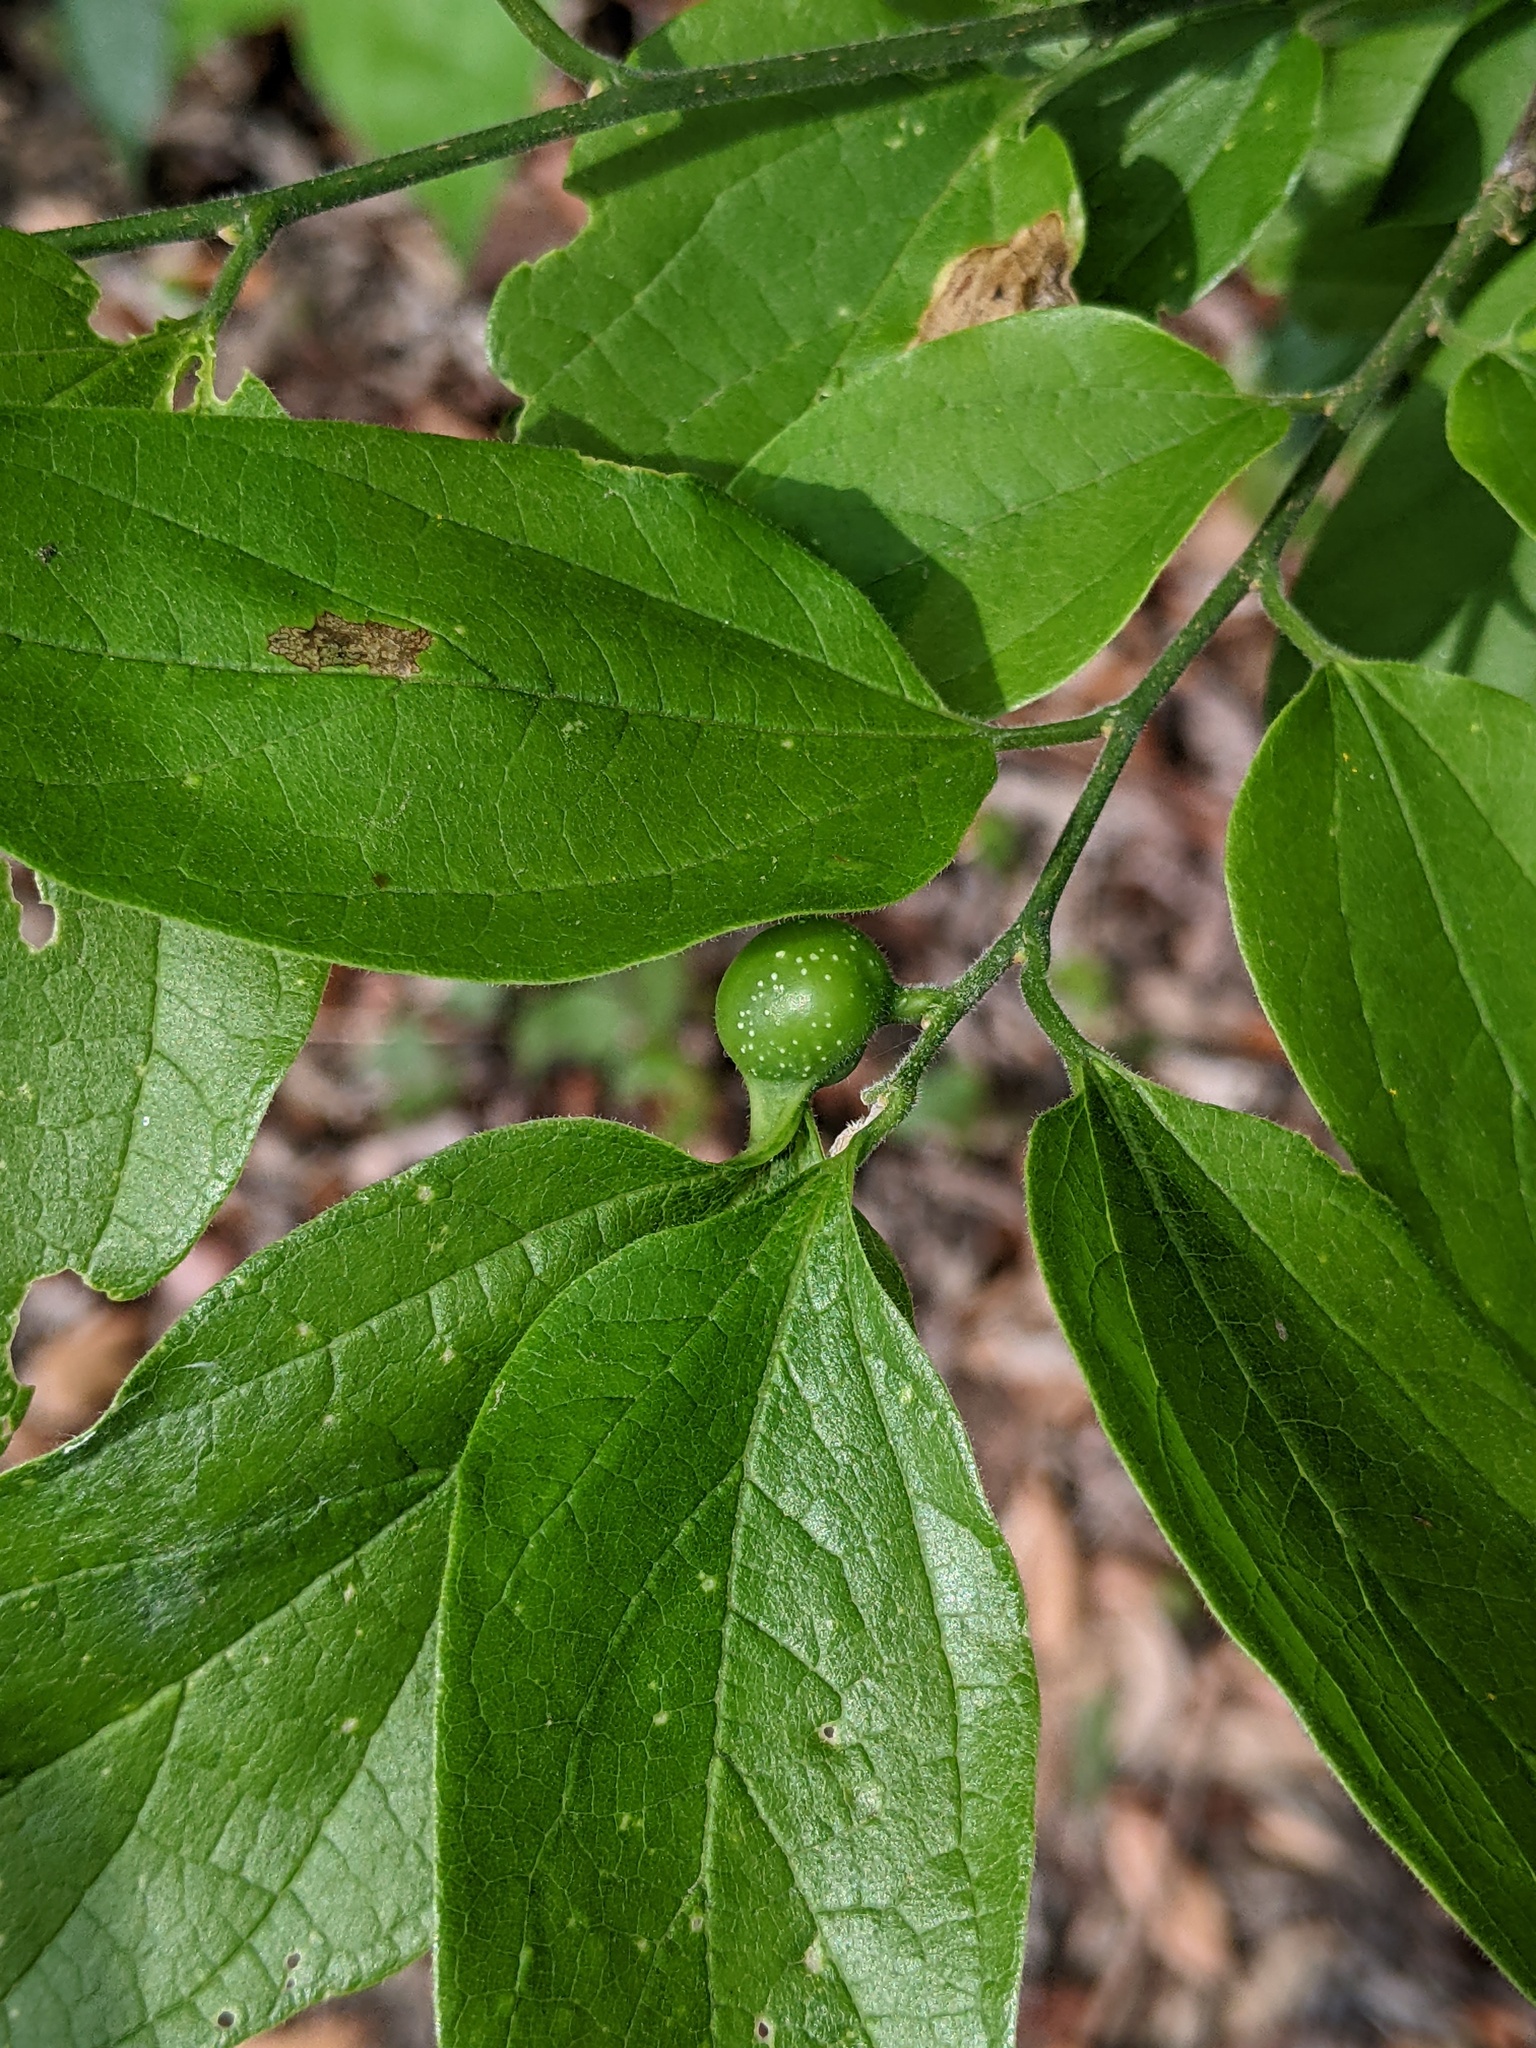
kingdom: Animalia
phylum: Arthropoda
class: Insecta
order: Hymenoptera
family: Cynipidae
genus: Belonocnema
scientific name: Belonocnema kinseyi
